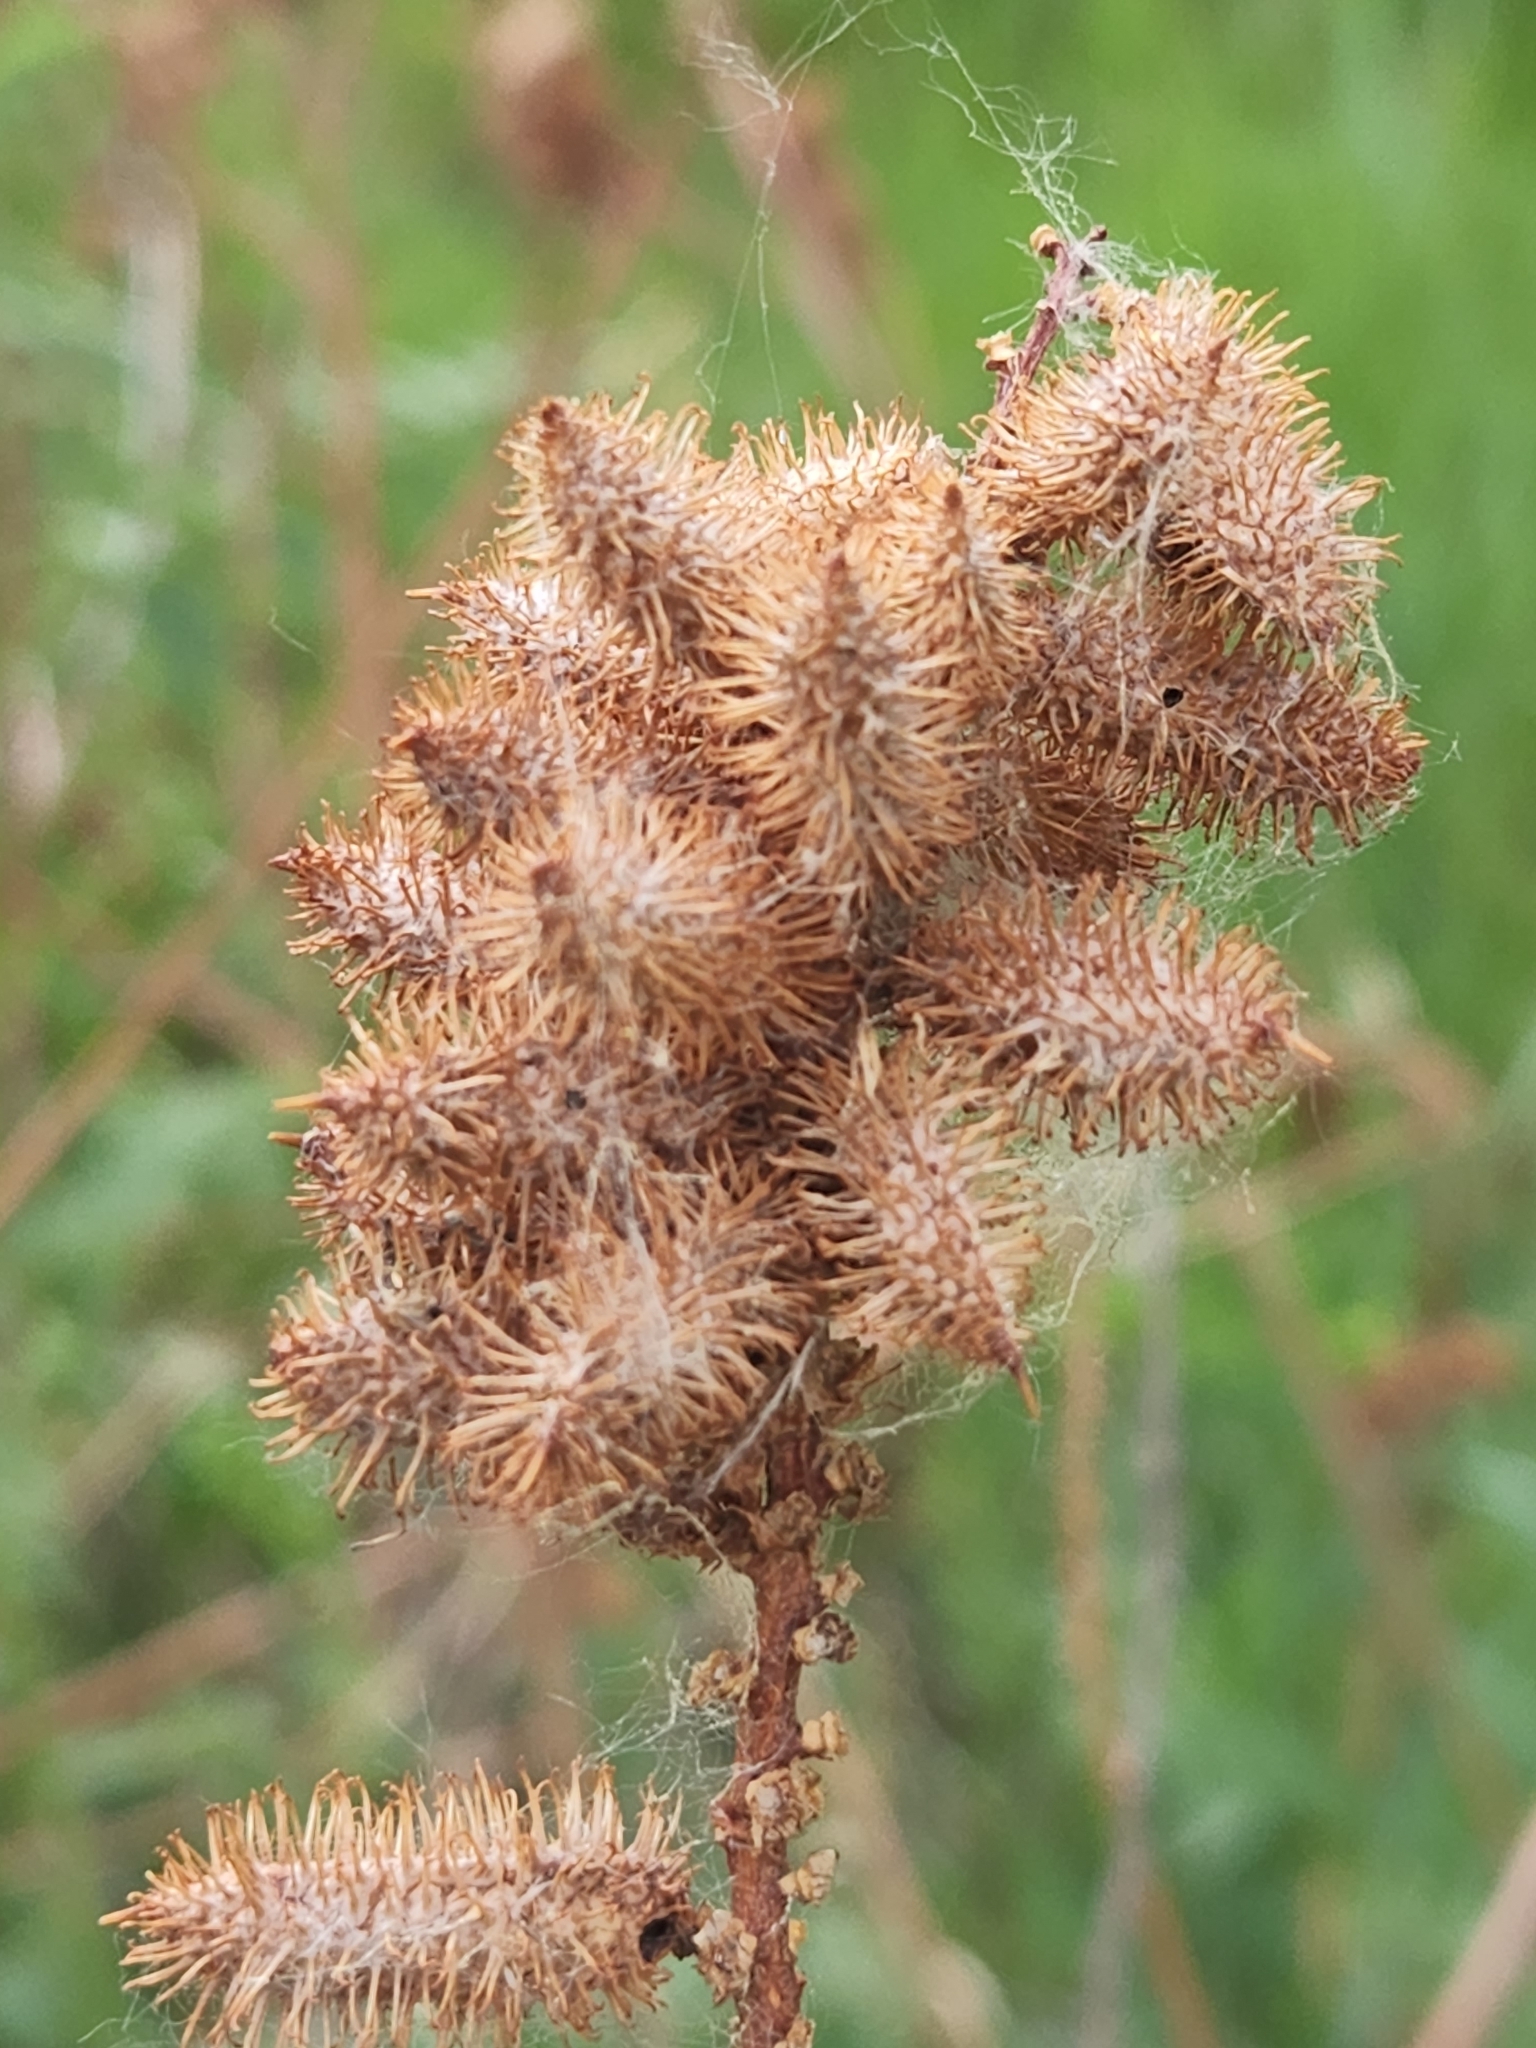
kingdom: Plantae
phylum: Tracheophyta
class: Magnoliopsida
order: Fabales
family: Fabaceae
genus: Glycyrrhiza
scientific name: Glycyrrhiza lepidota
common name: American liquorice
